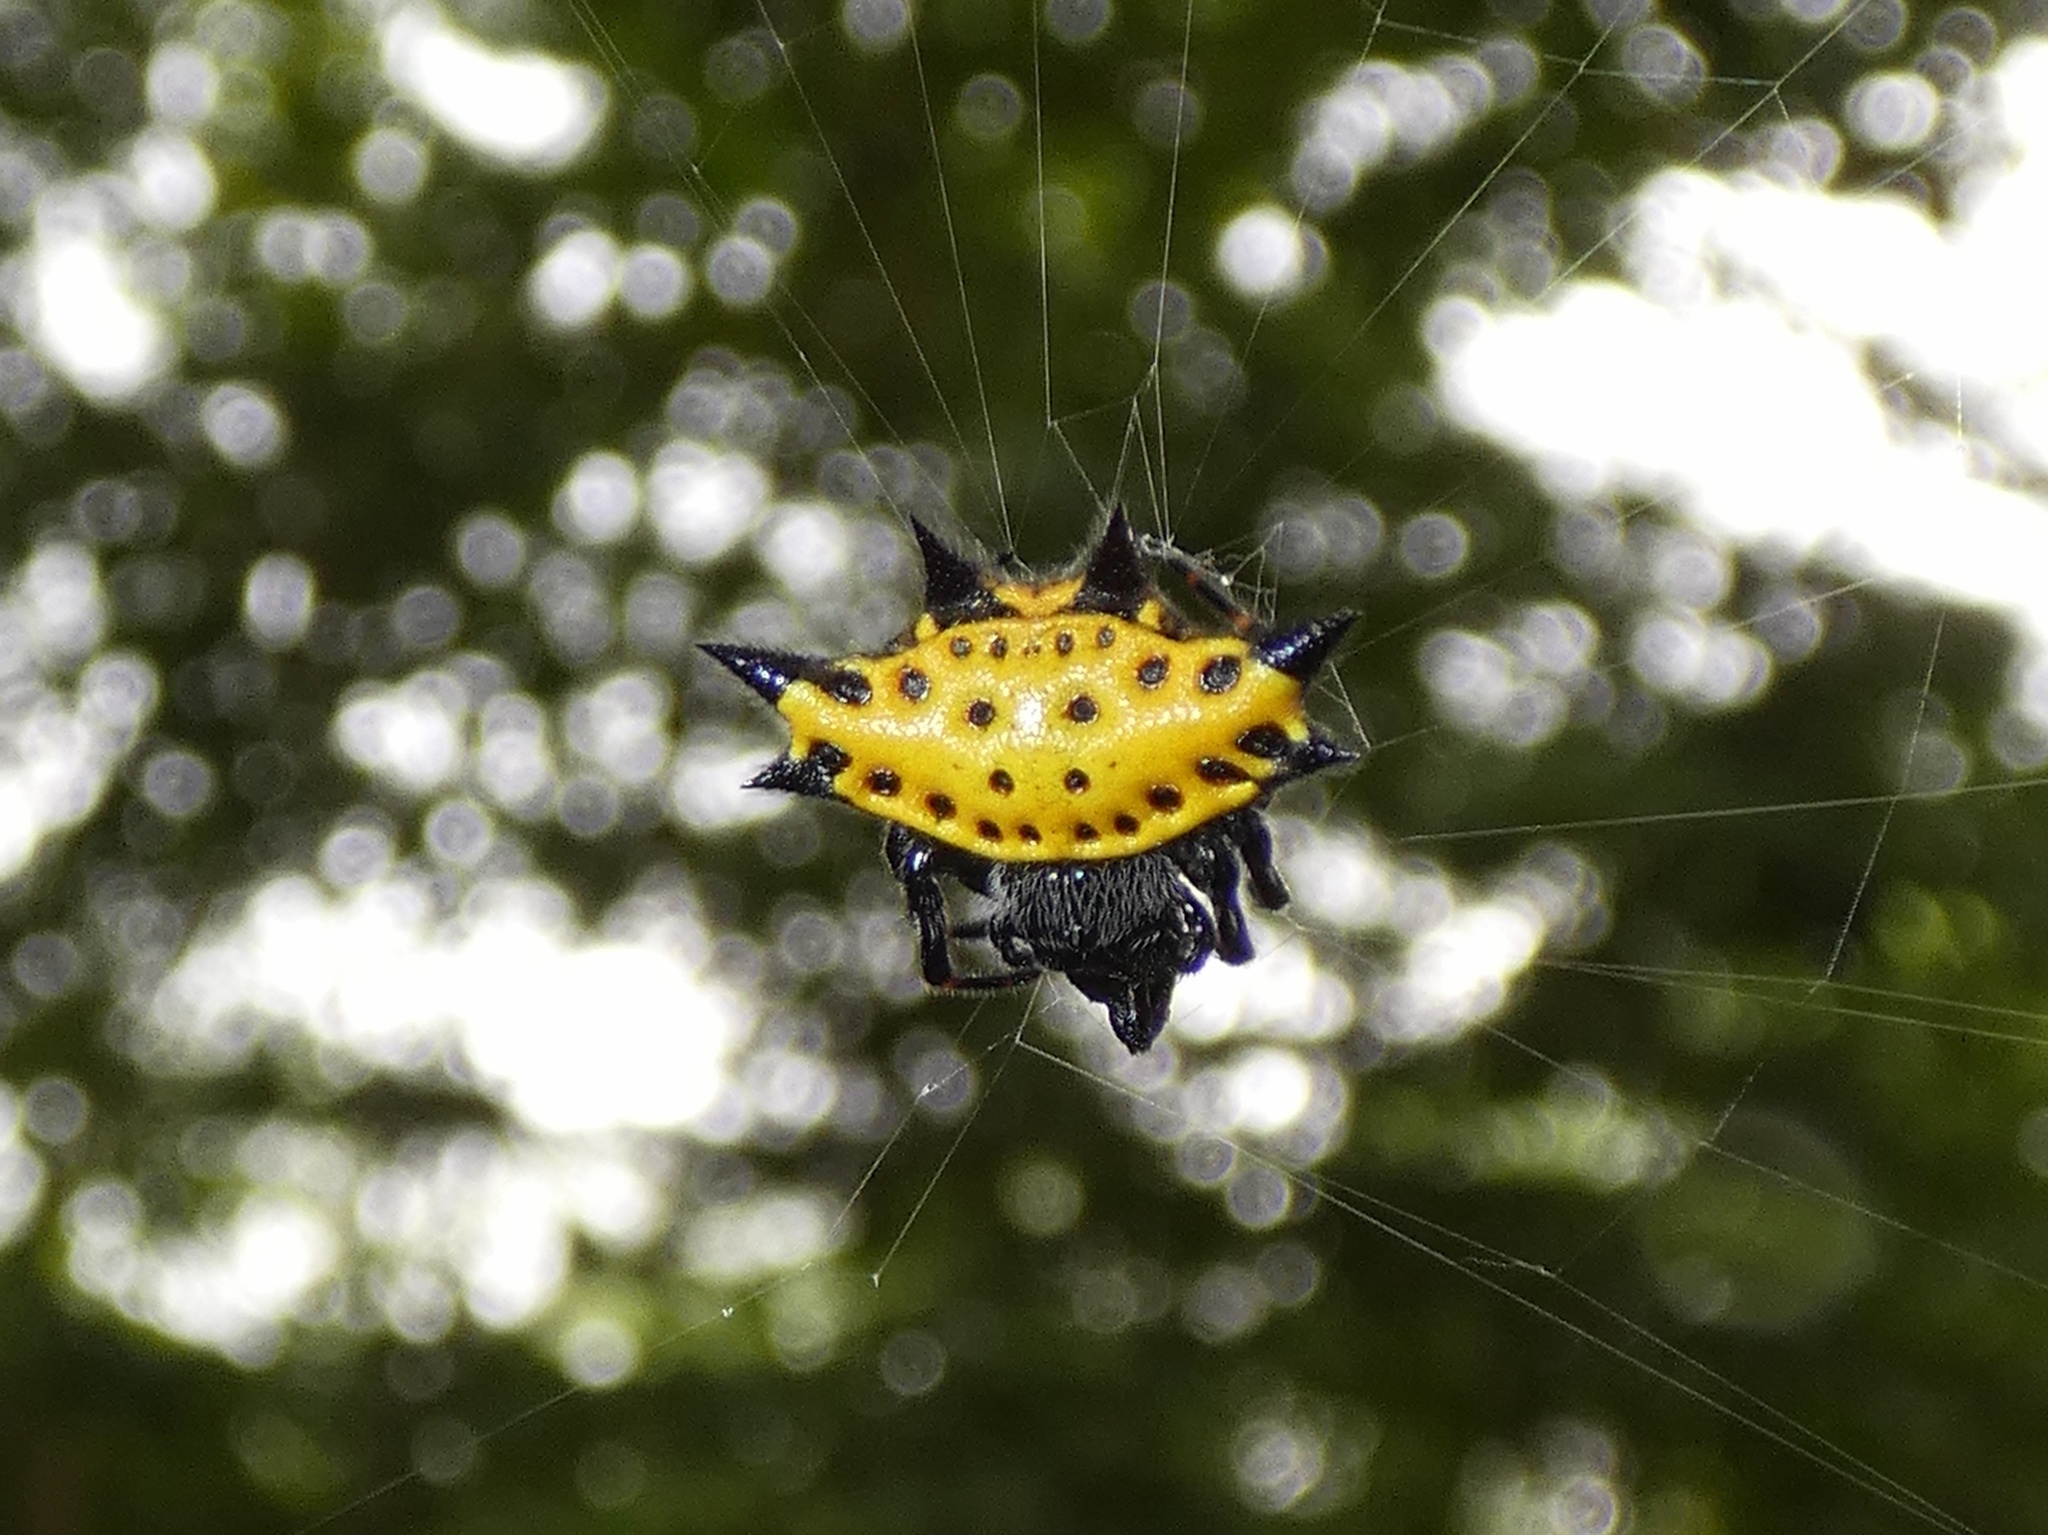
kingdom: Animalia
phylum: Arthropoda
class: Arachnida
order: Araneae
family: Araneidae
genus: Gasteracantha
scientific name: Gasteracantha cancriformis
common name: Orb weavers
